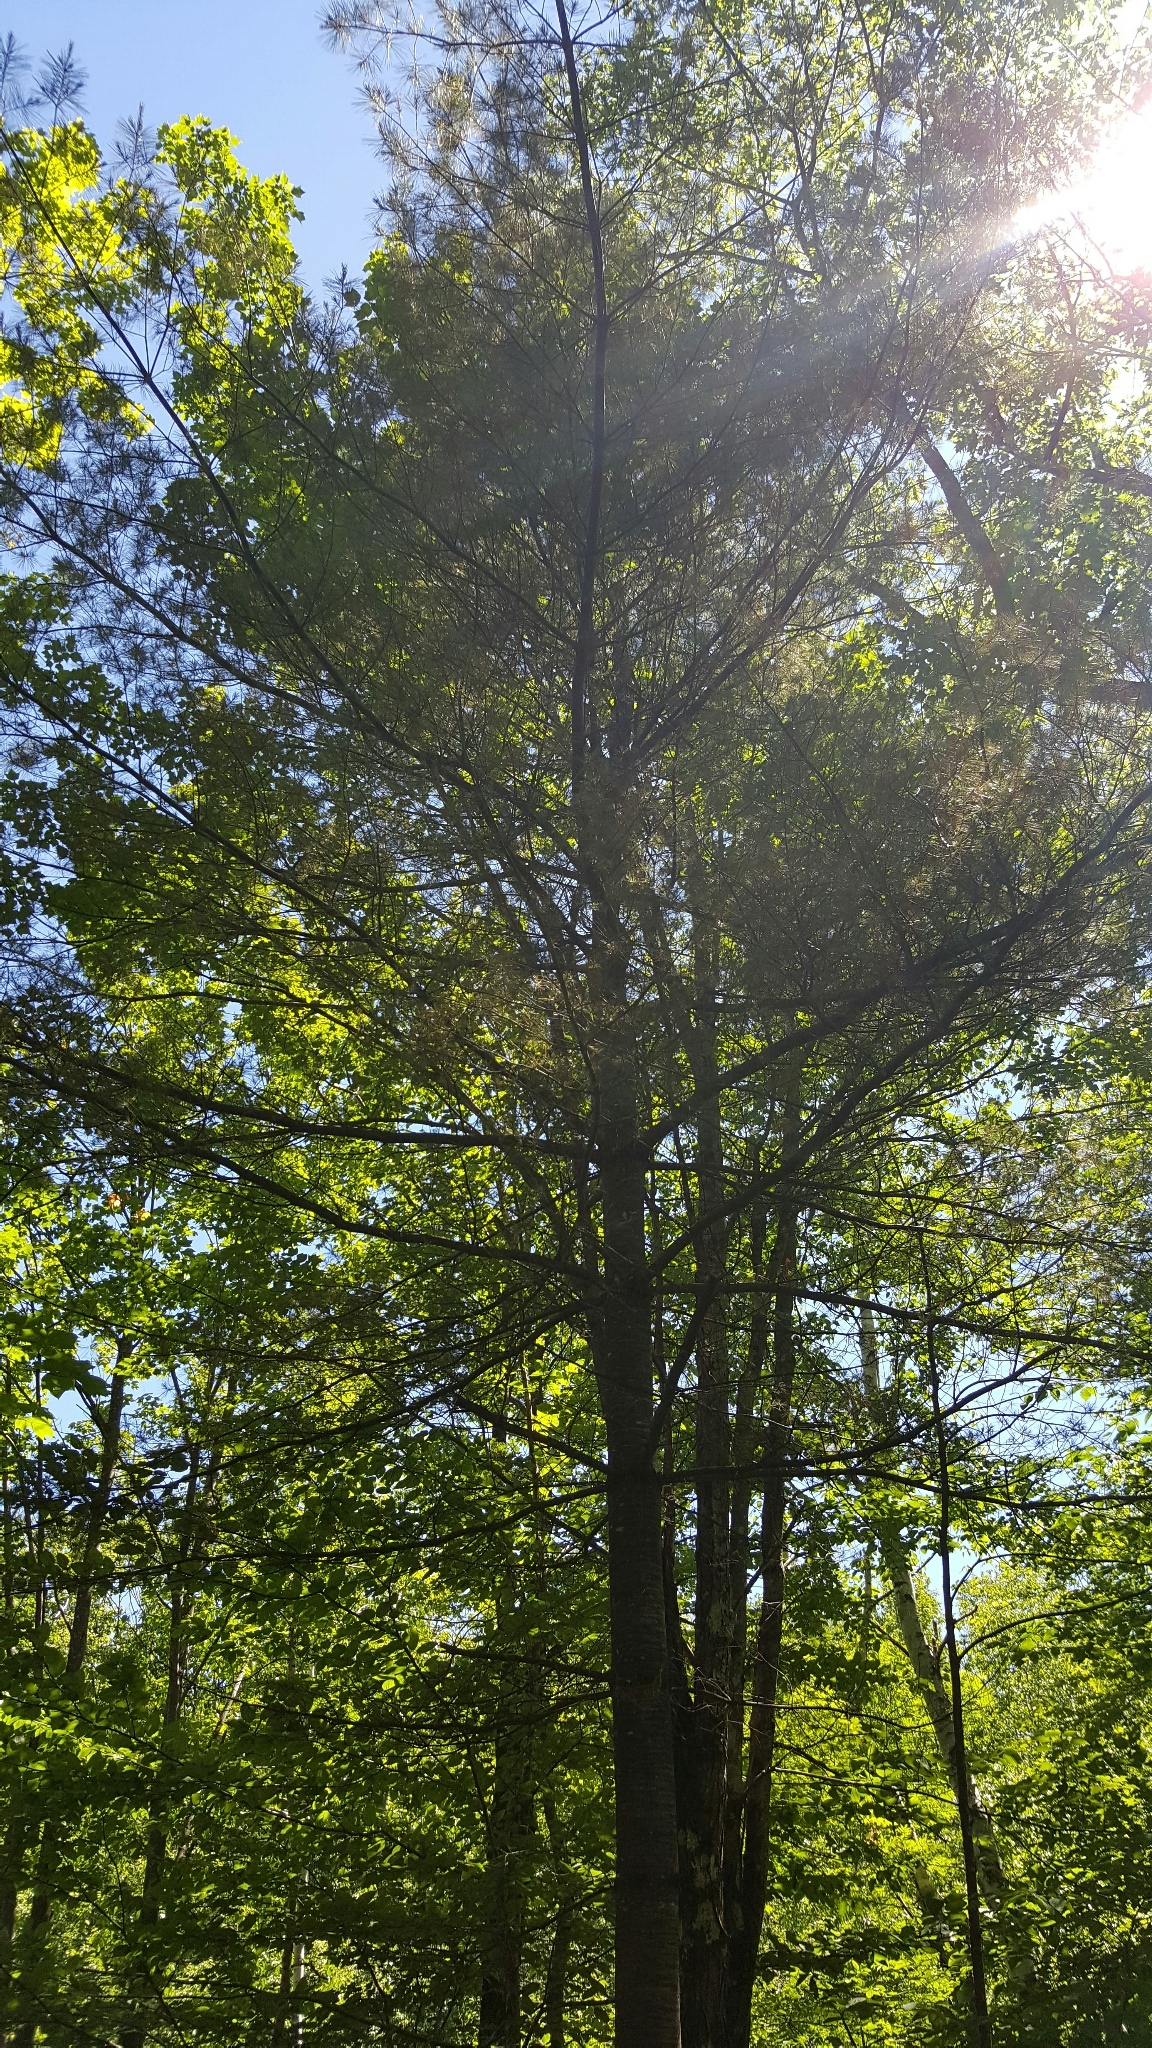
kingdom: Plantae
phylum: Tracheophyta
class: Pinopsida
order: Pinales
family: Pinaceae
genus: Pinus
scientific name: Pinus strobus
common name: Weymouth pine
